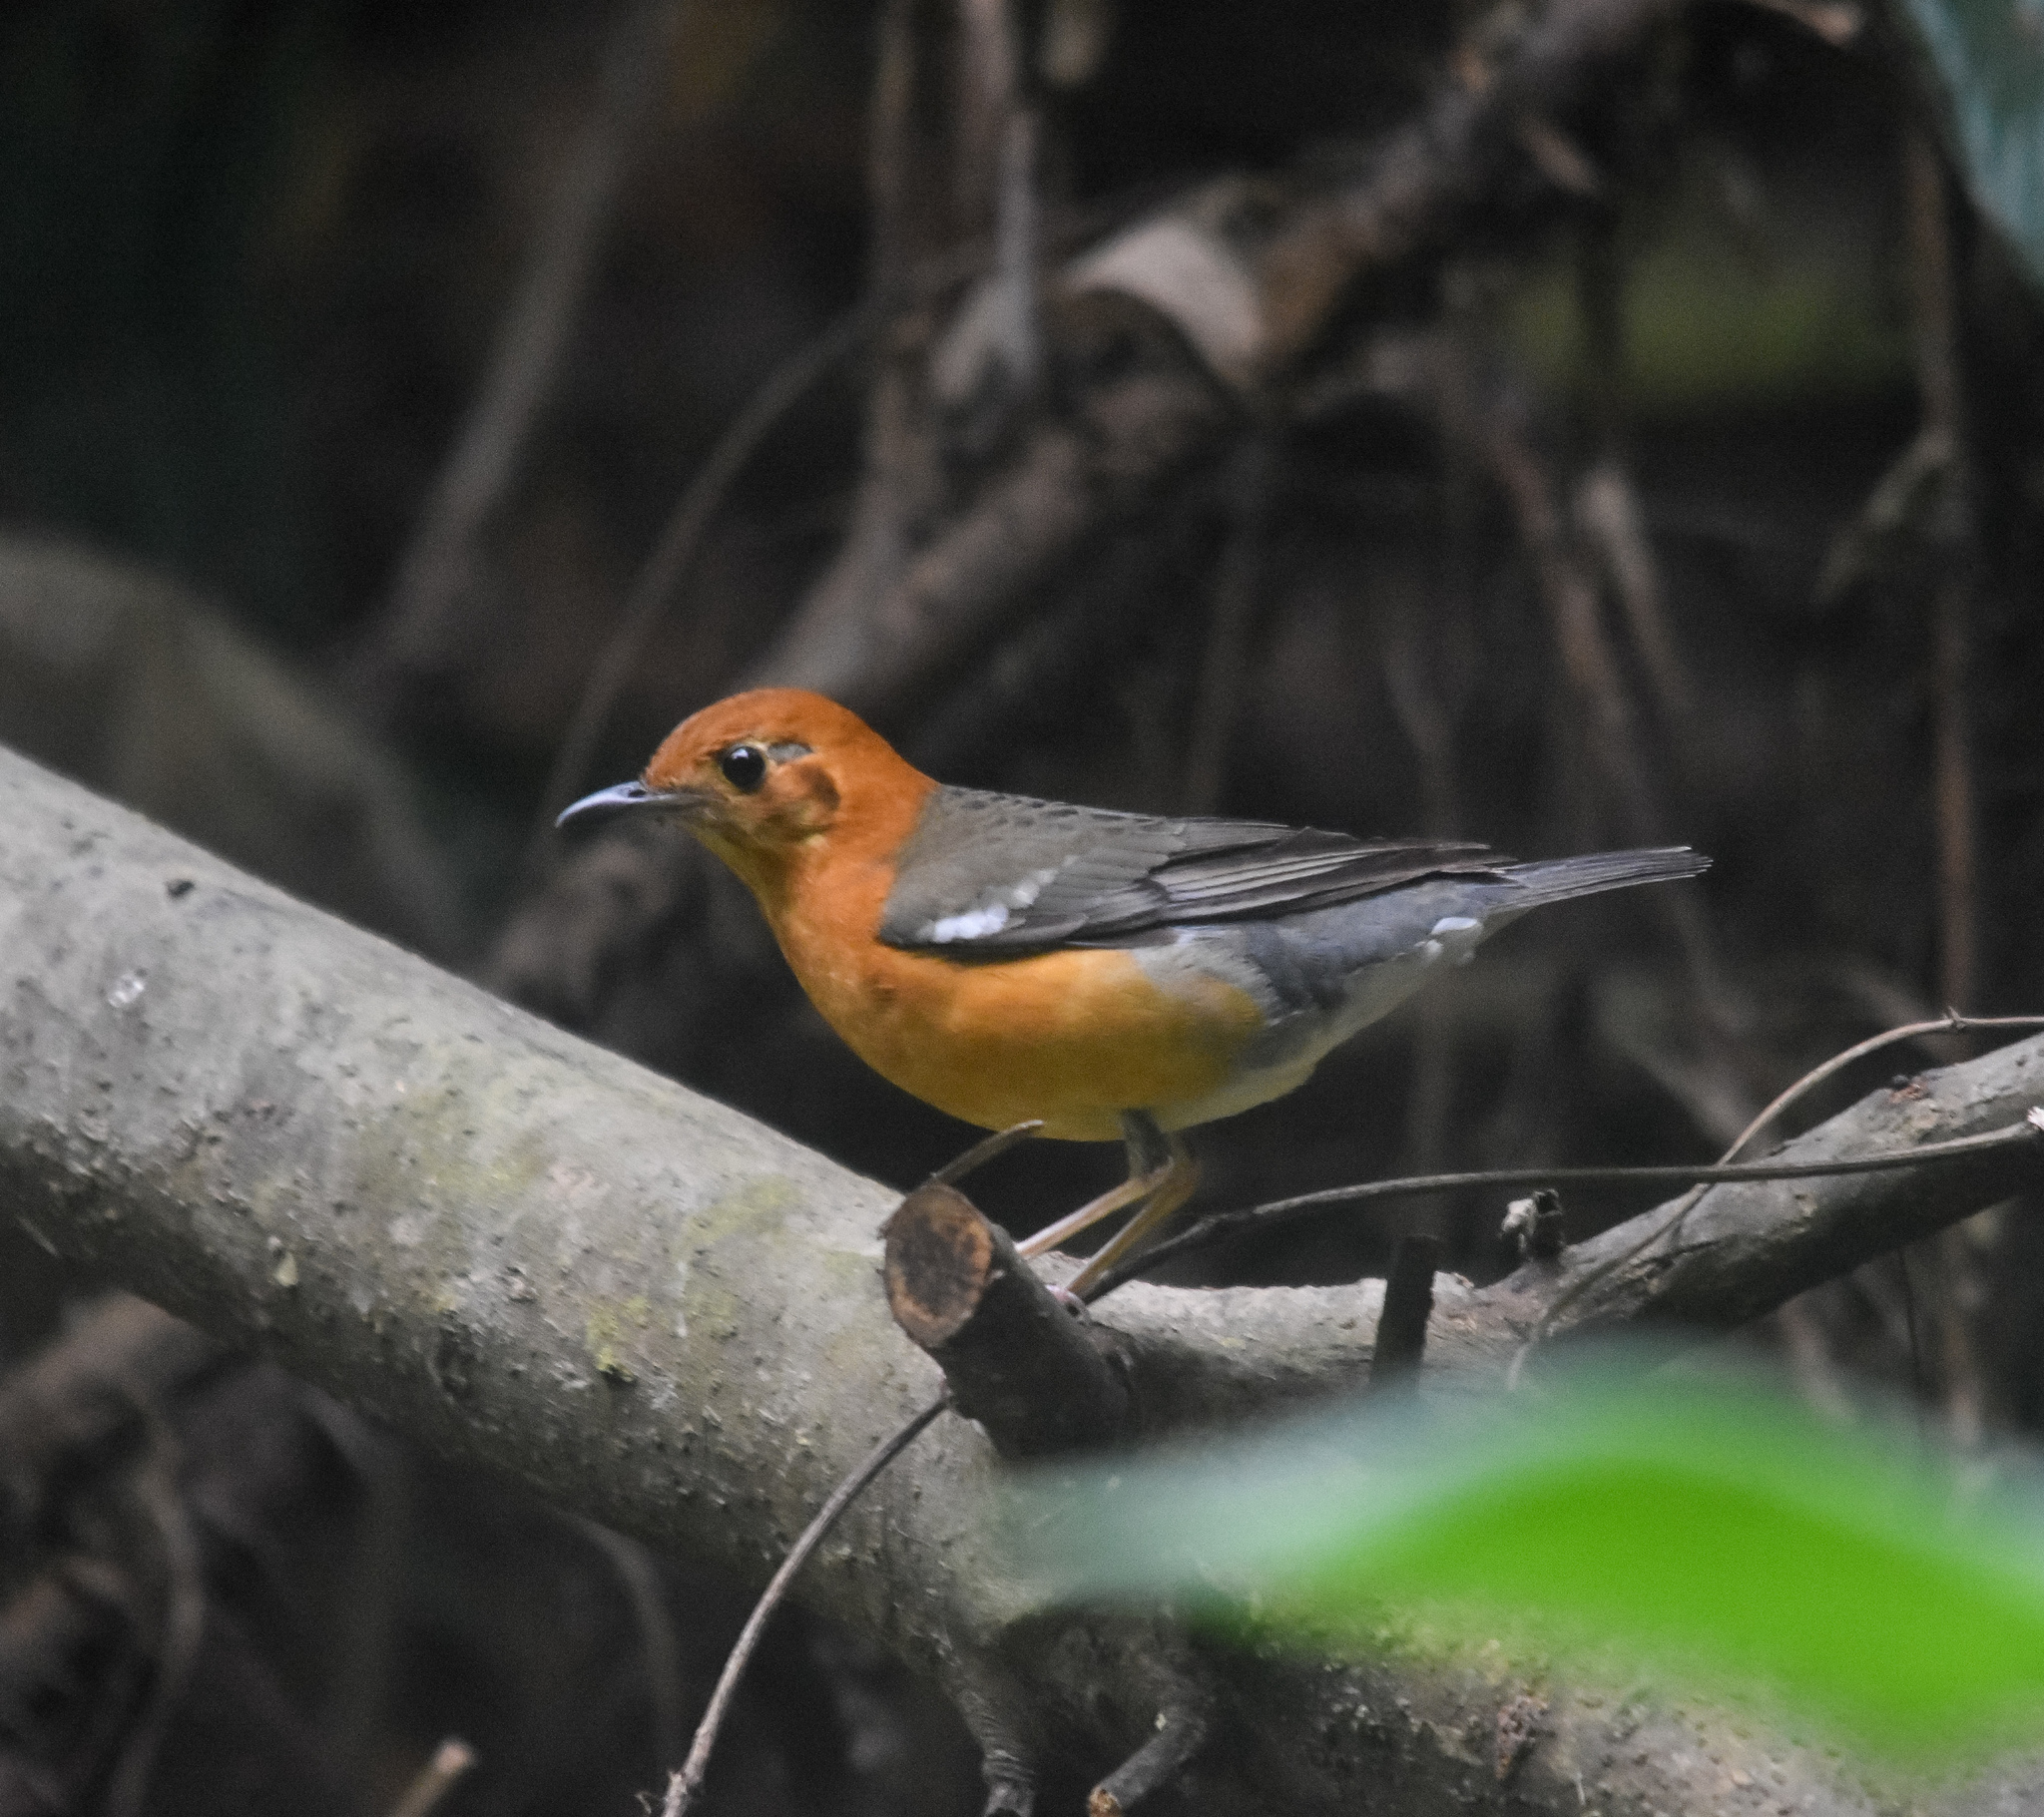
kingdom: Animalia
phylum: Chordata
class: Aves
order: Passeriformes
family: Turdidae
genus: Geokichla
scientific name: Geokichla citrina
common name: Orange-headed thrush
